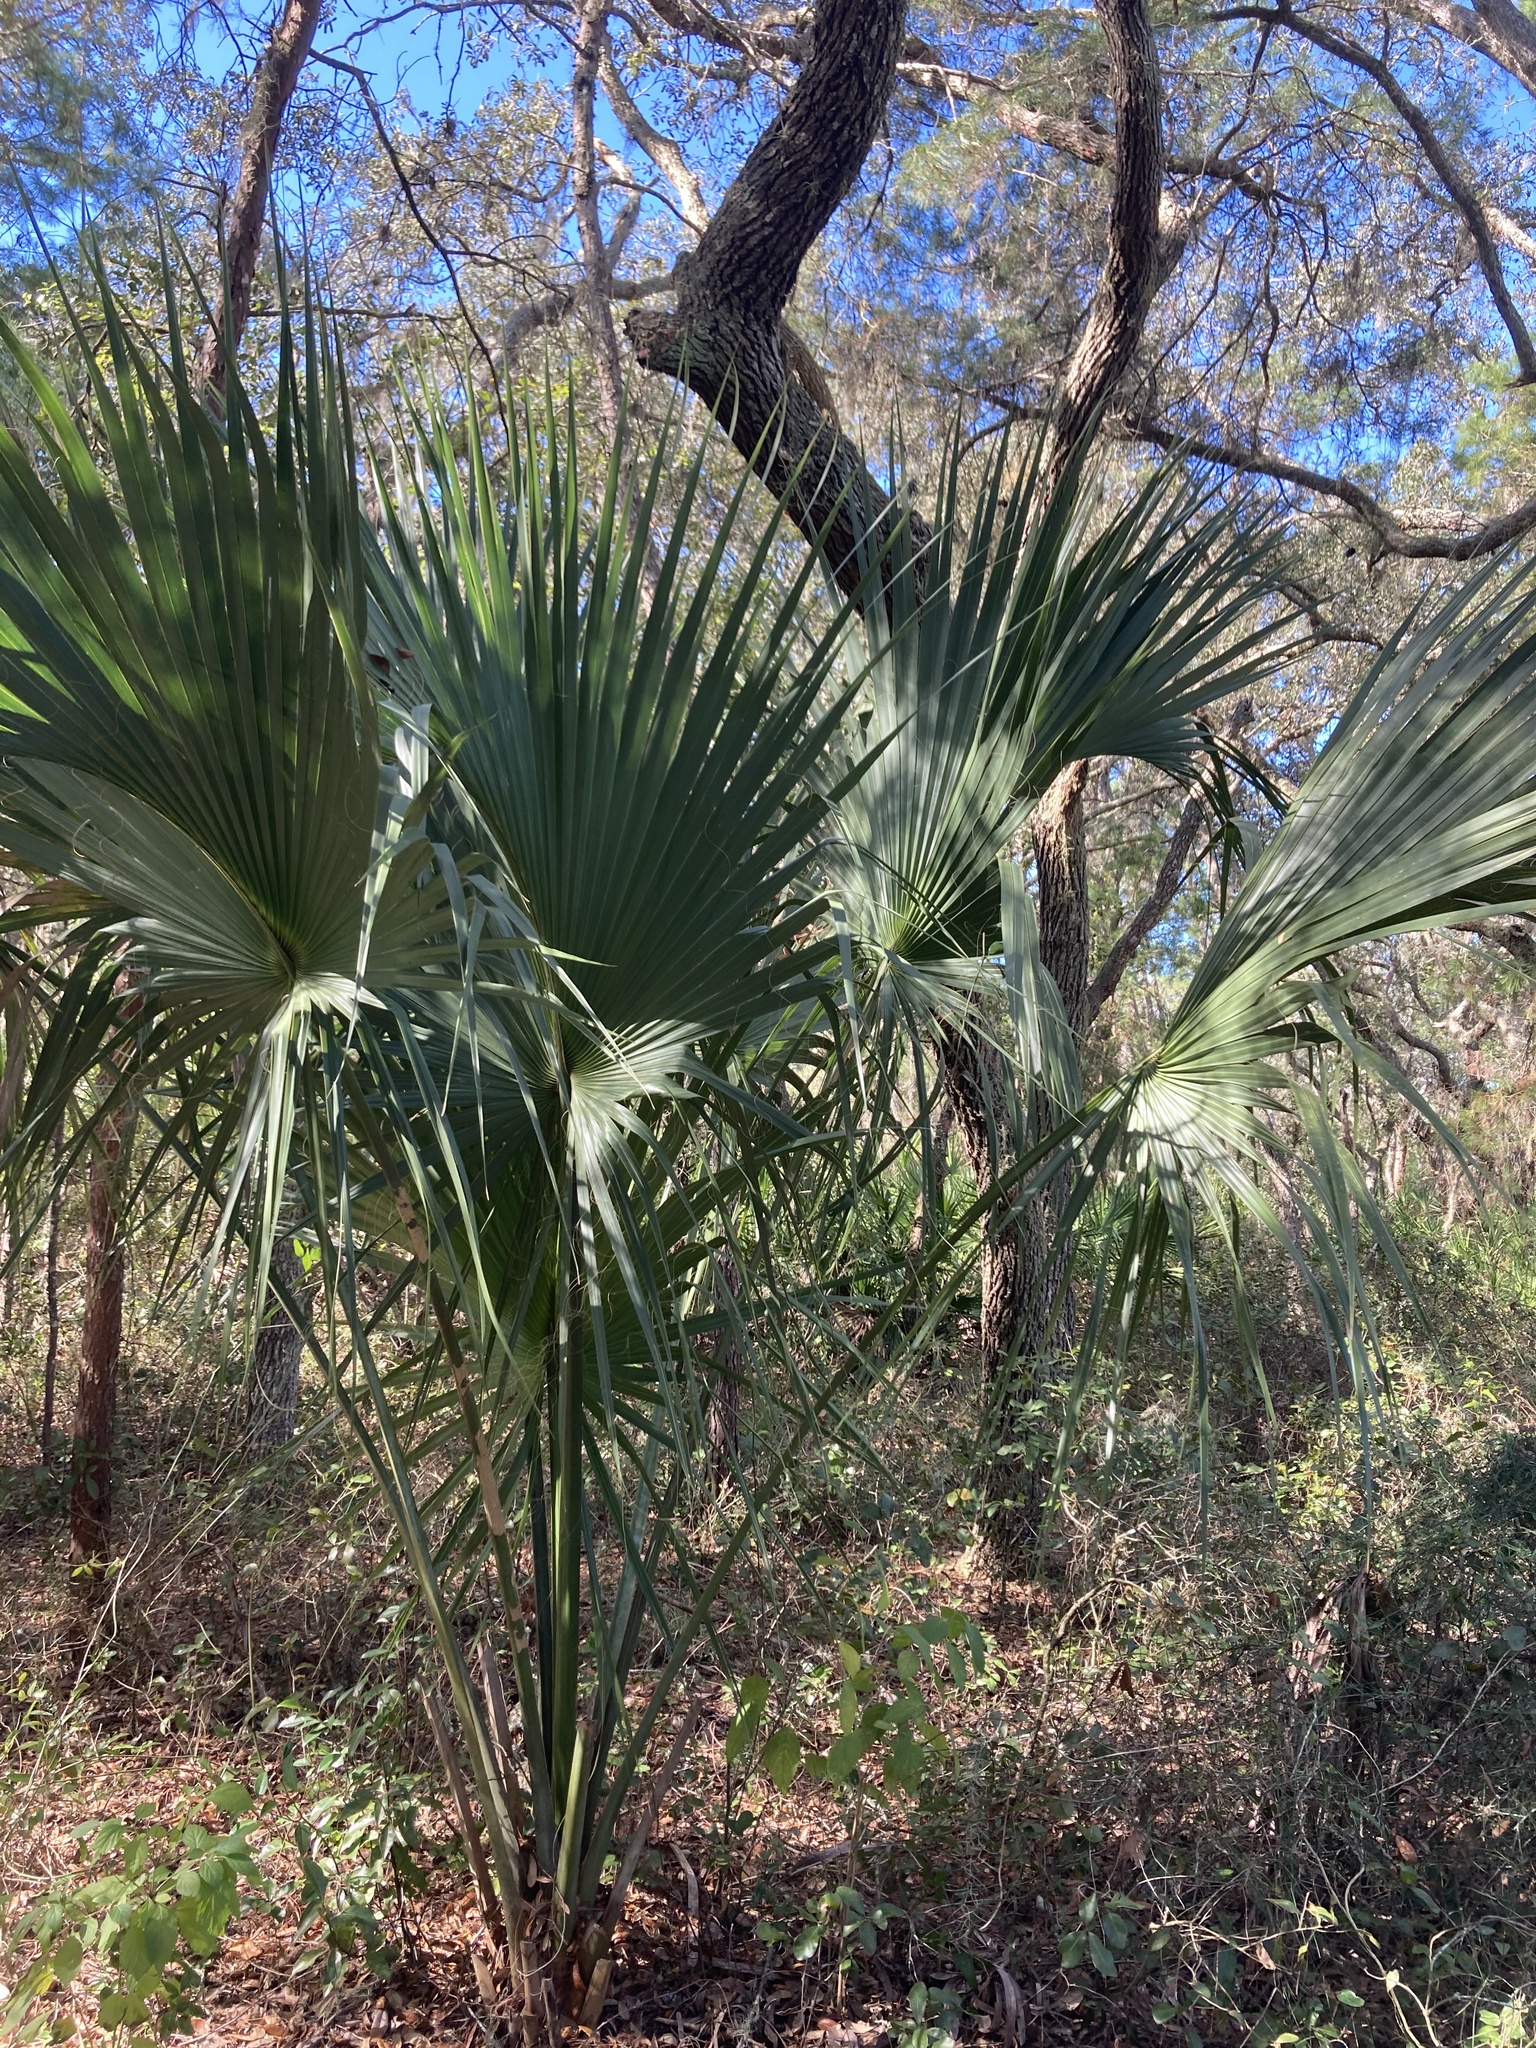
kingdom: Plantae
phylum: Tracheophyta
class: Liliopsida
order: Arecales
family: Arecaceae
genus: Sabal
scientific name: Sabal palmetto
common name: Blue palmetto
